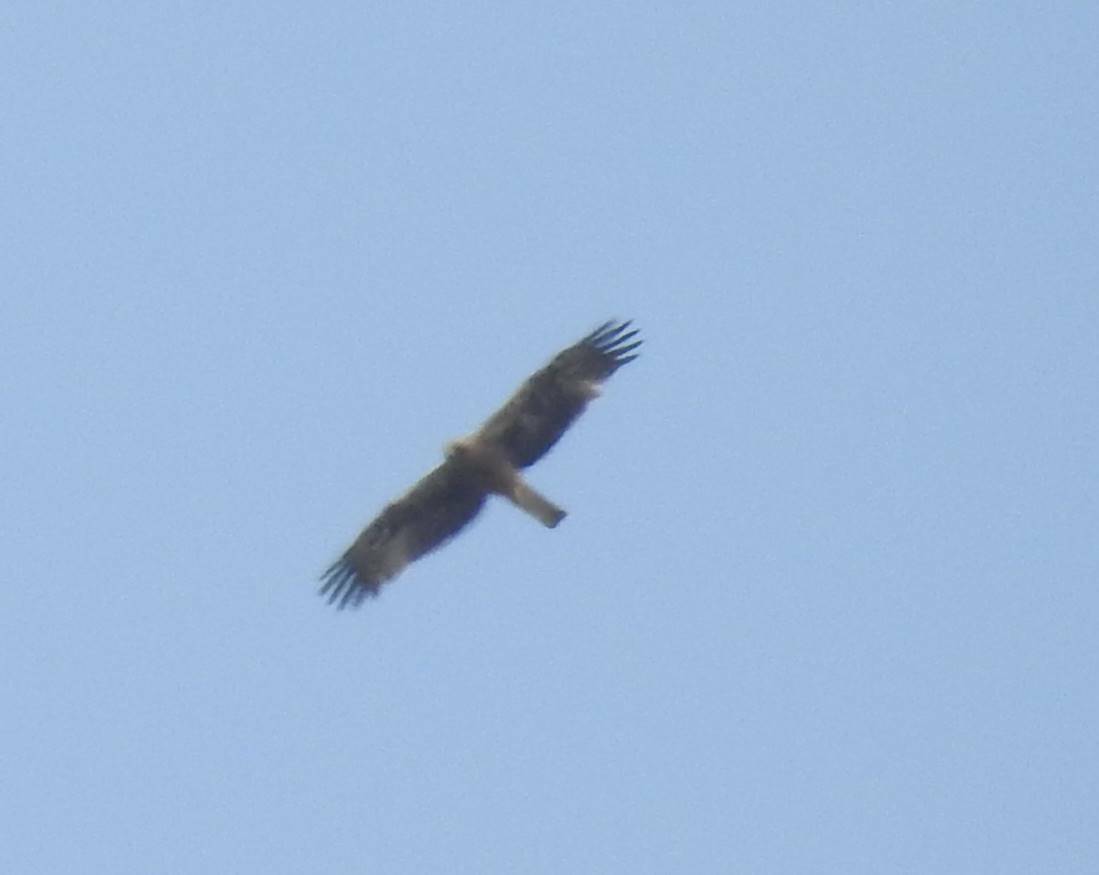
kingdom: Animalia
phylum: Chordata
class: Aves
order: Accipitriformes
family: Accipitridae
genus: Hieraaetus
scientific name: Hieraaetus pennatus
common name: Booted eagle
